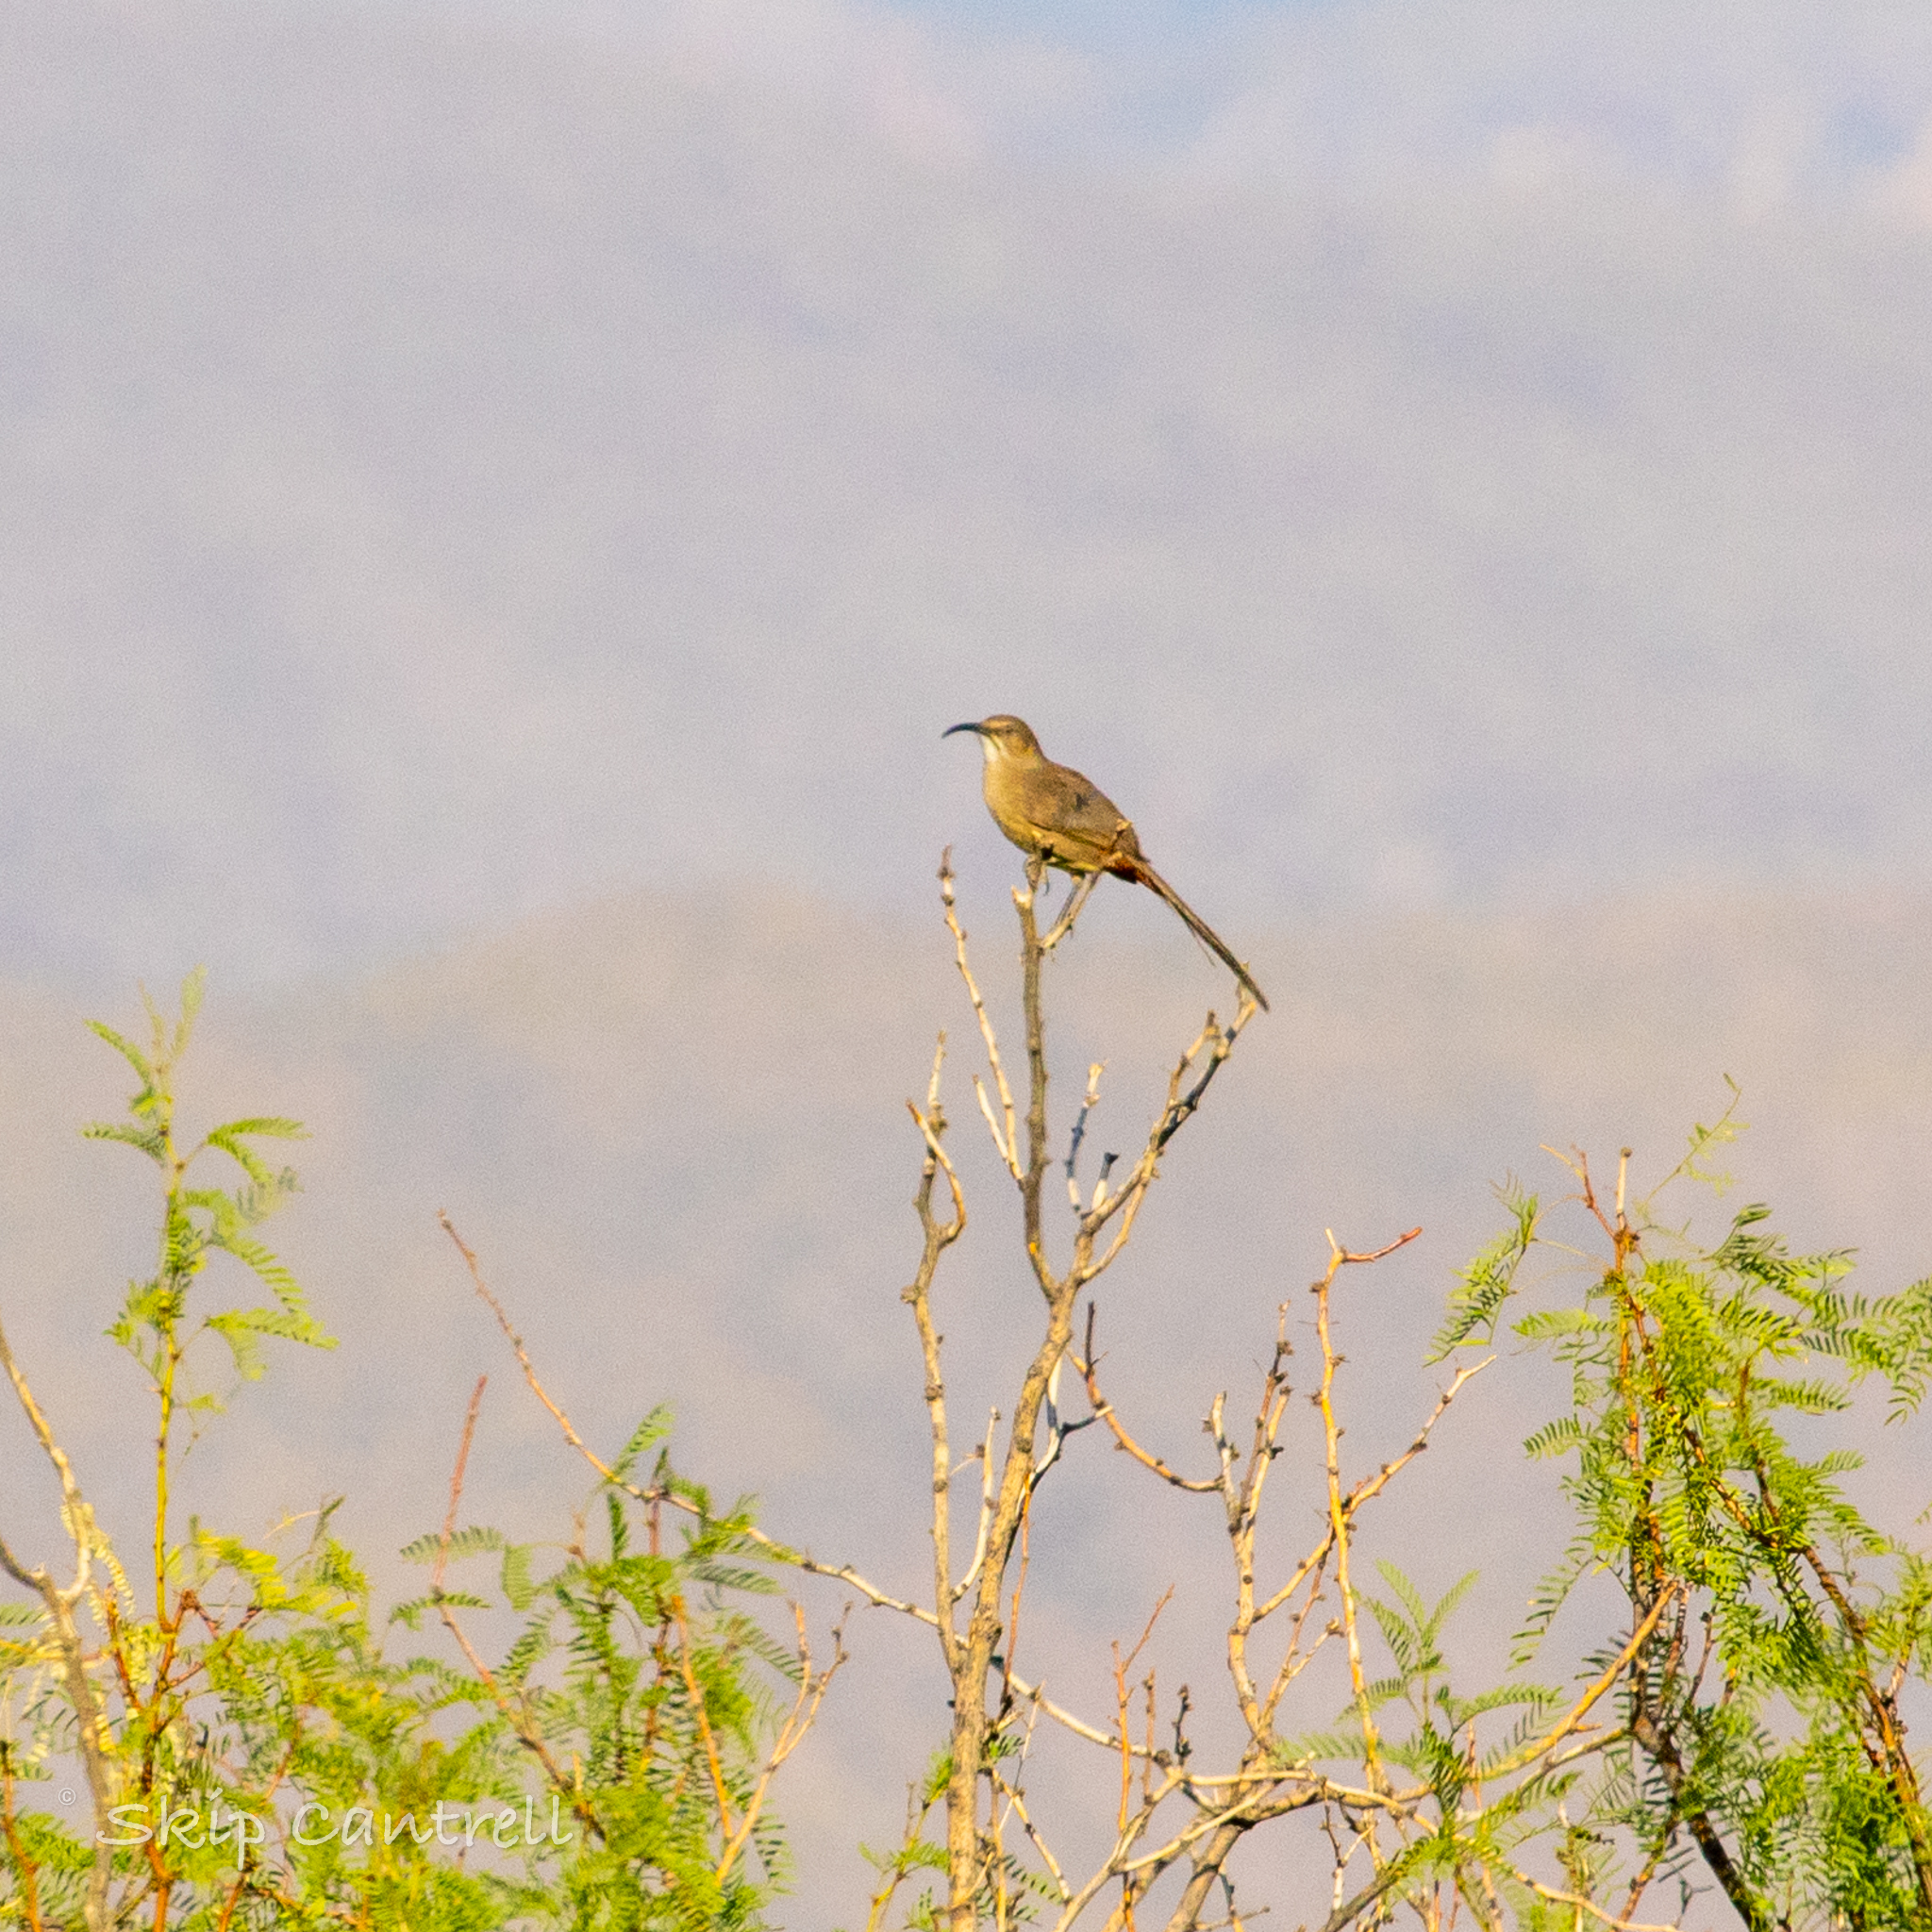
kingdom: Animalia
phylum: Chordata
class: Aves
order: Passeriformes
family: Mimidae
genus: Toxostoma
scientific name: Toxostoma crissale
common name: Crissal thrasher
